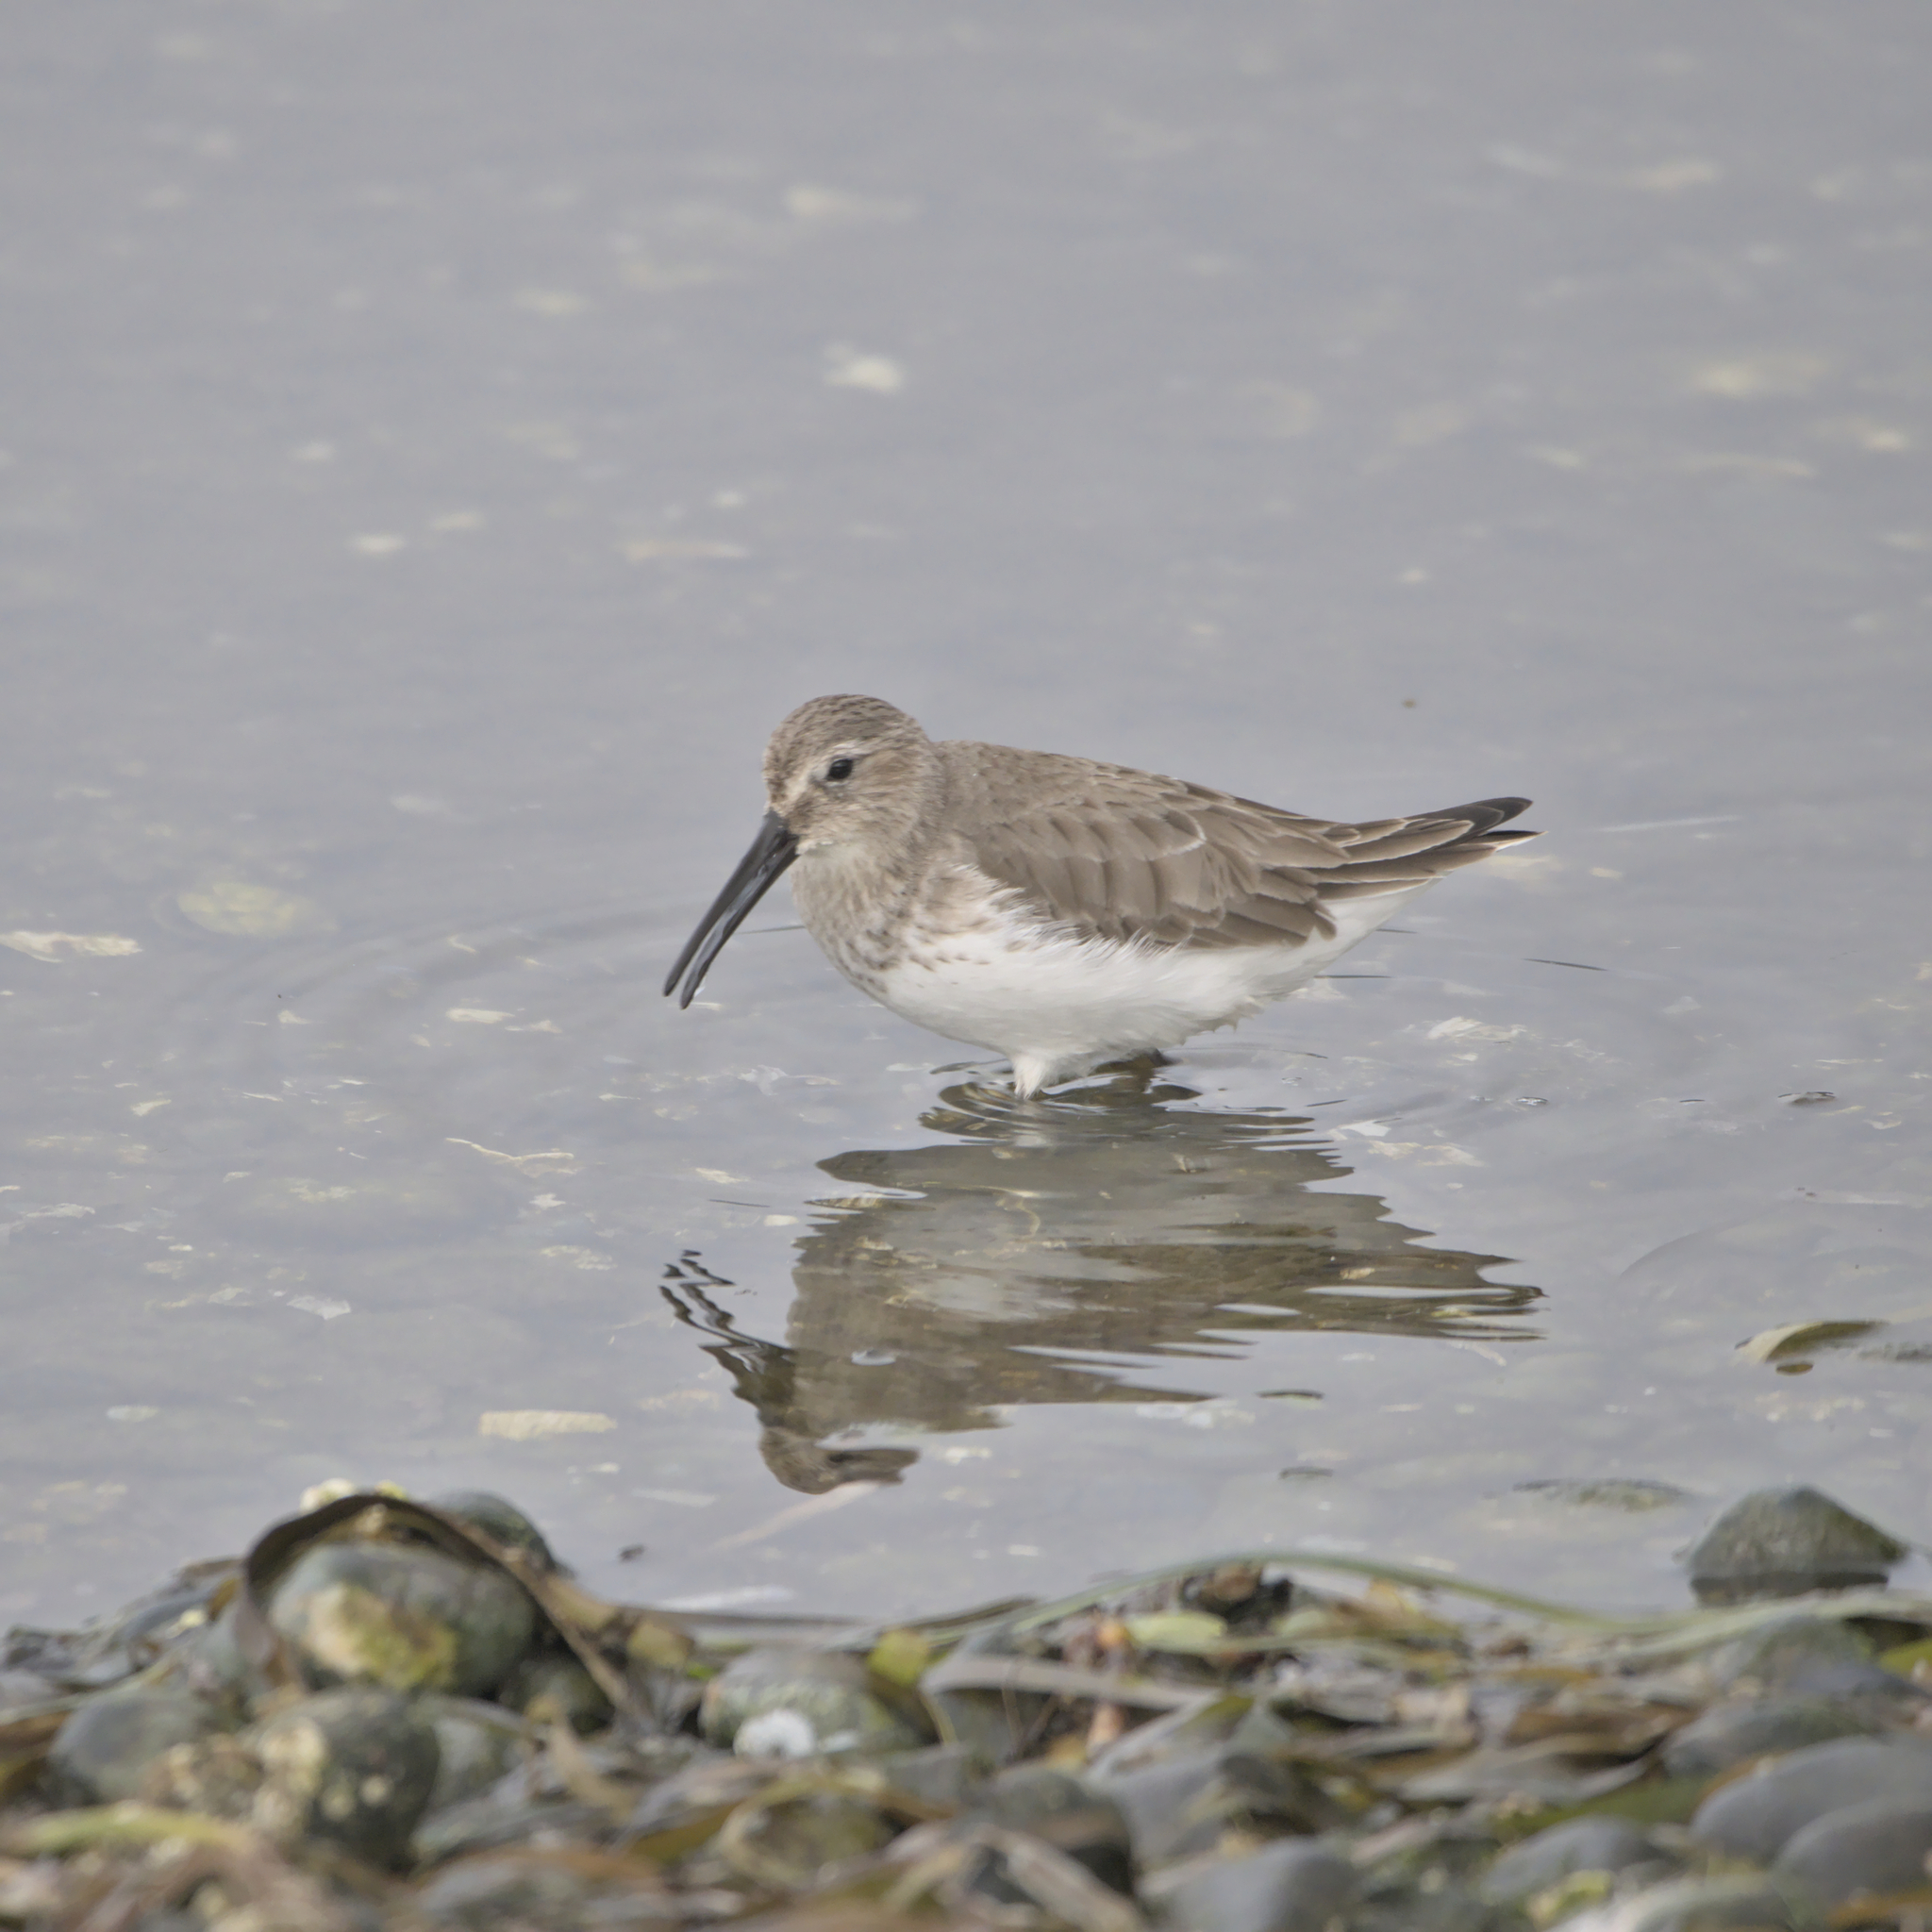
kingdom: Animalia
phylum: Chordata
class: Aves
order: Charadriiformes
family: Scolopacidae
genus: Calidris
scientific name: Calidris alpina
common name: Dunlin
